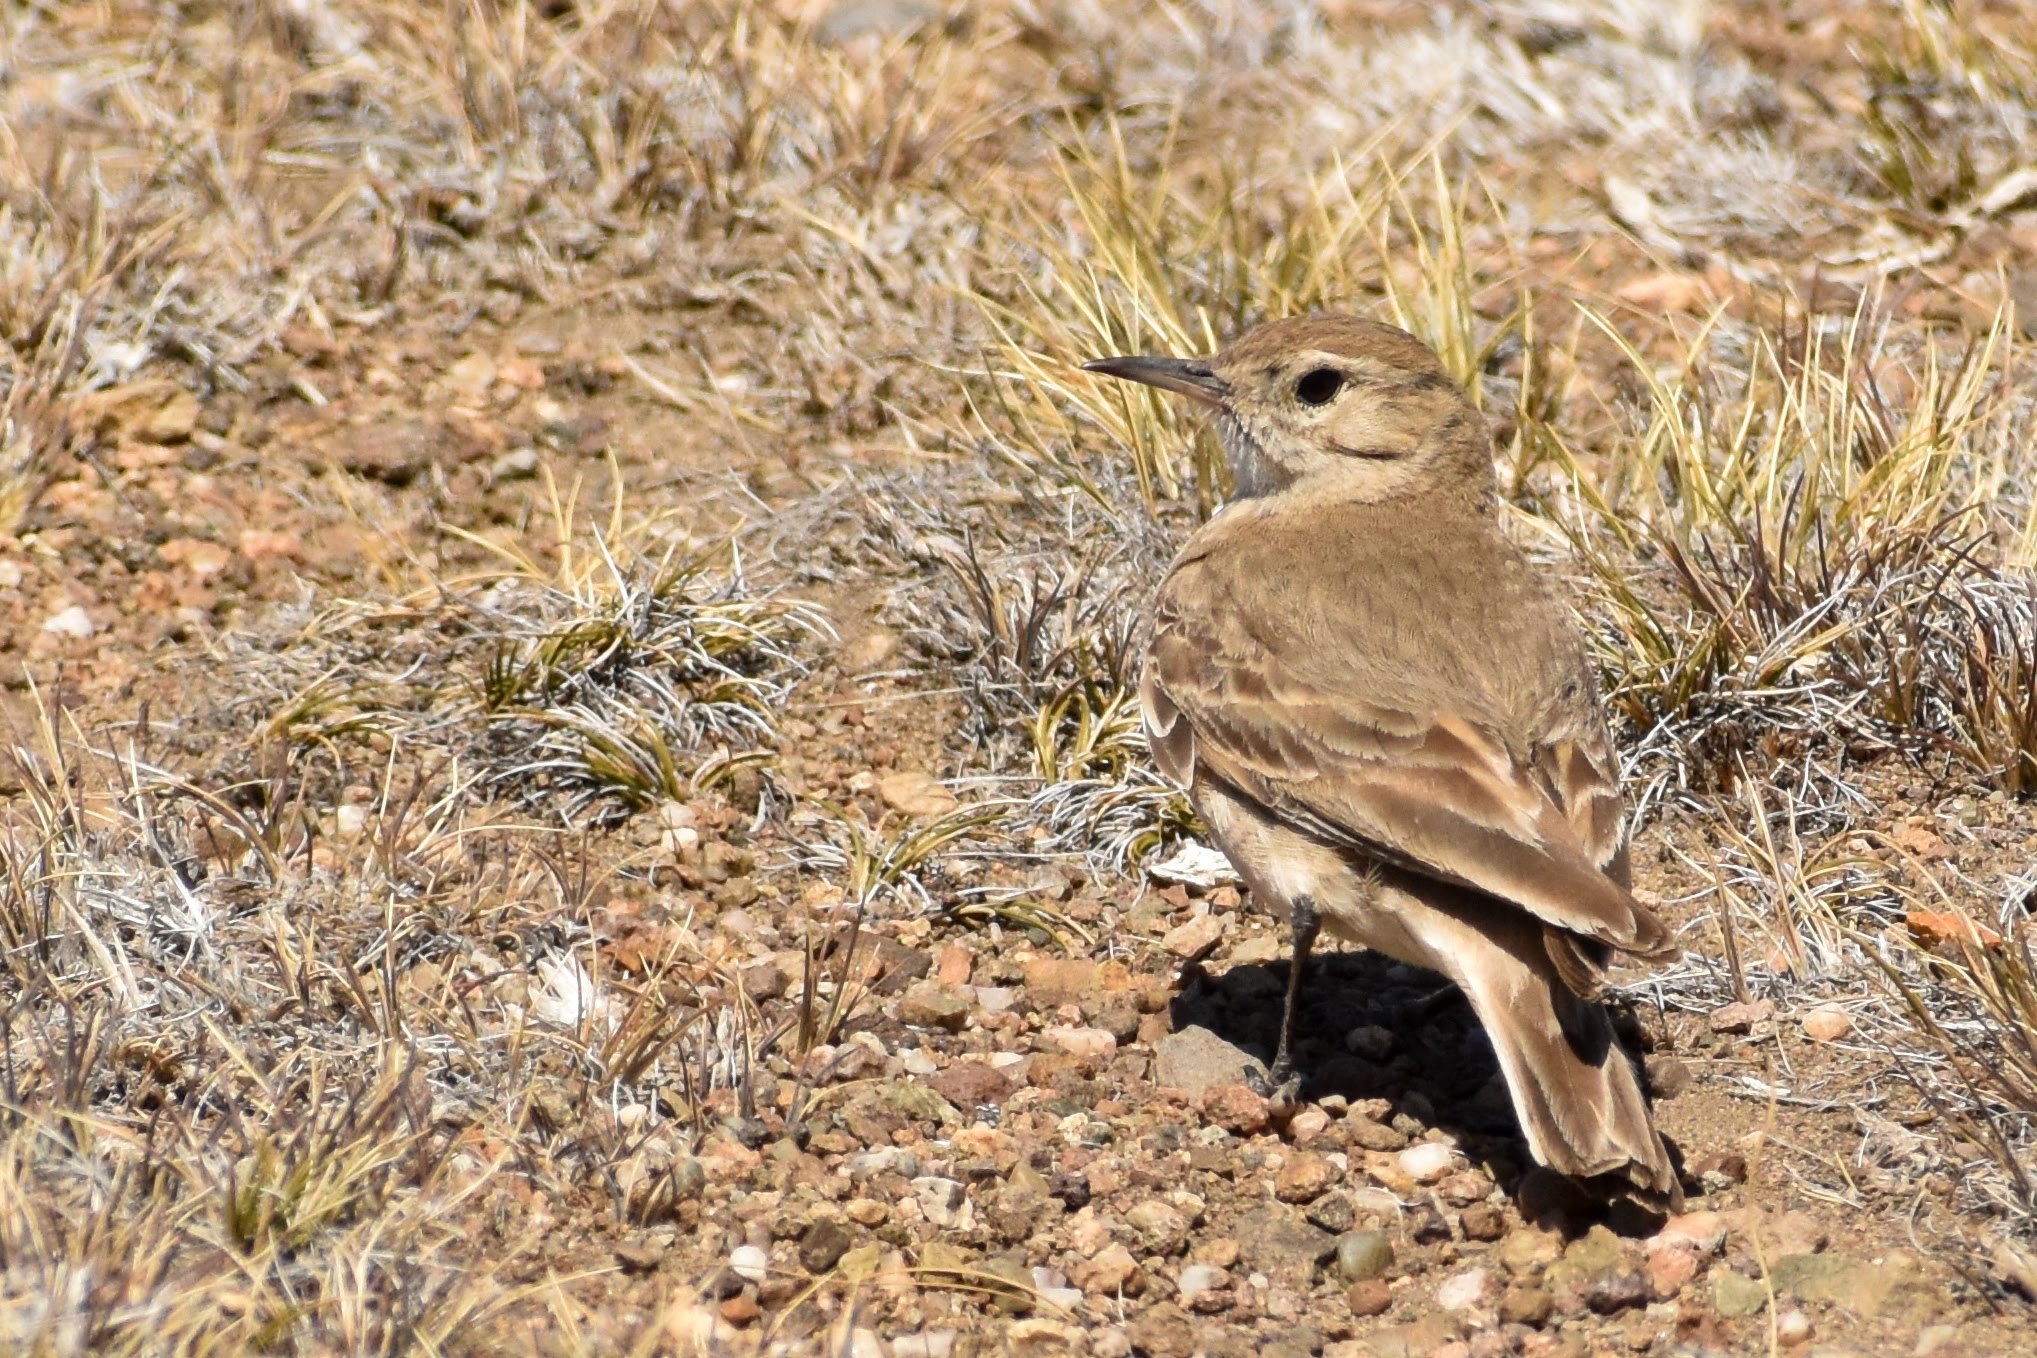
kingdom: Animalia
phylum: Chordata
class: Aves
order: Passeriformes
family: Furnariidae
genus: Geositta
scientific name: Geositta cunicularia
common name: Common miner
